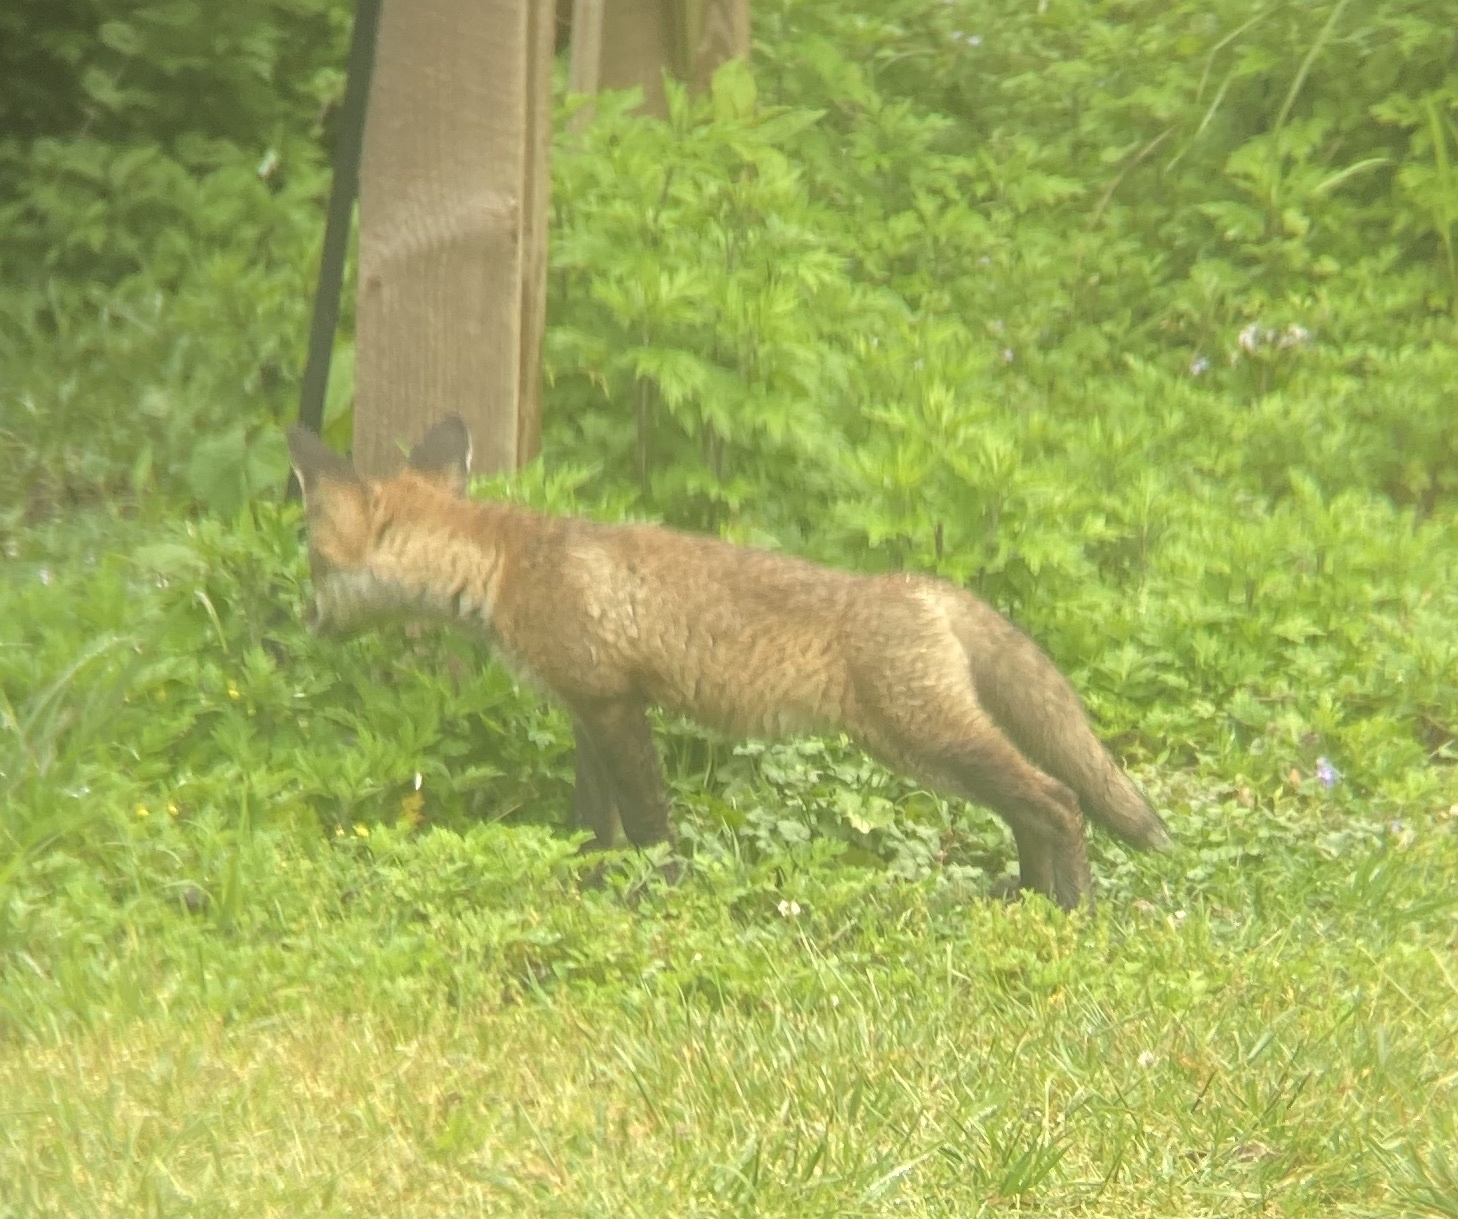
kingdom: Animalia
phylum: Chordata
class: Mammalia
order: Carnivora
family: Canidae
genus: Vulpes
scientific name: Vulpes vulpes
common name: Red fox
